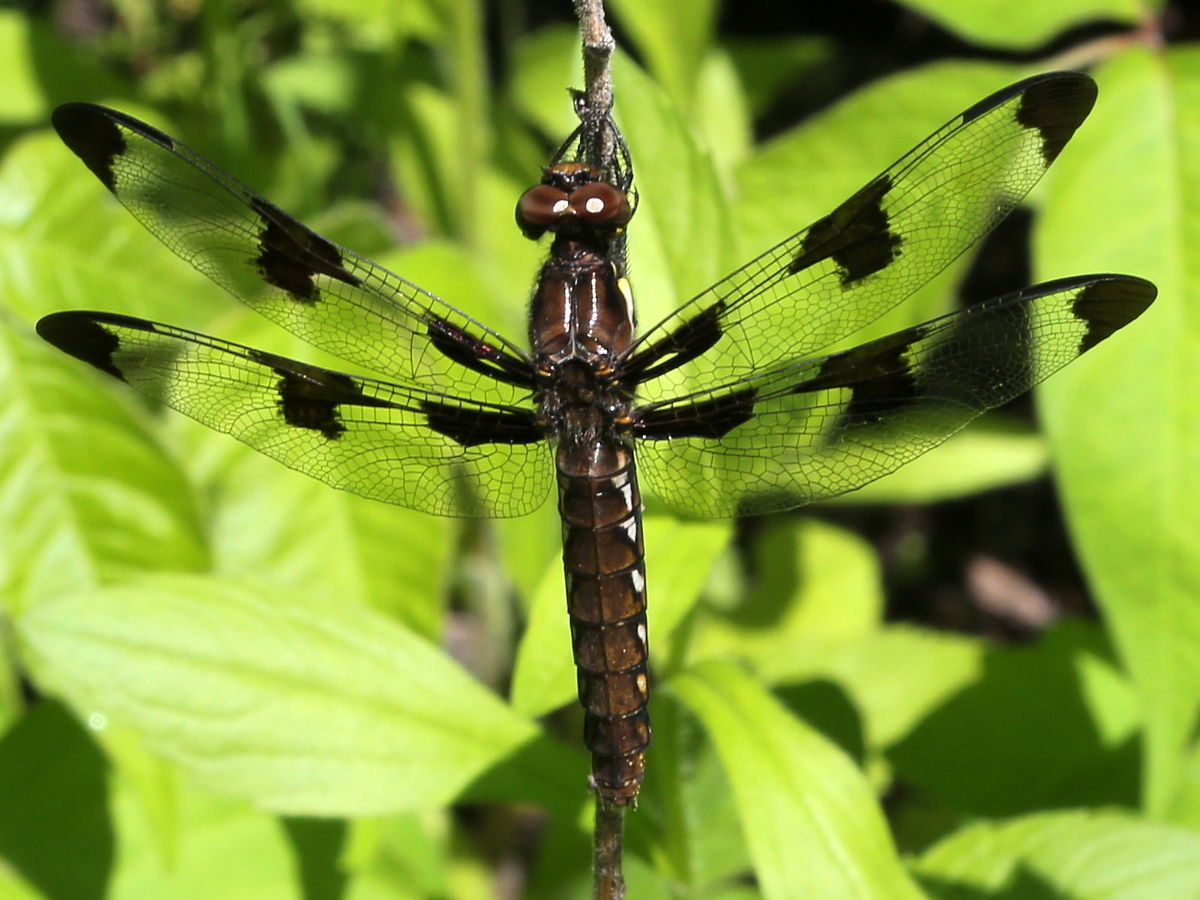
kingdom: Animalia
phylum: Arthropoda
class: Insecta
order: Odonata
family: Libellulidae
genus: Plathemis
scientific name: Plathemis lydia
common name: Common whitetail
